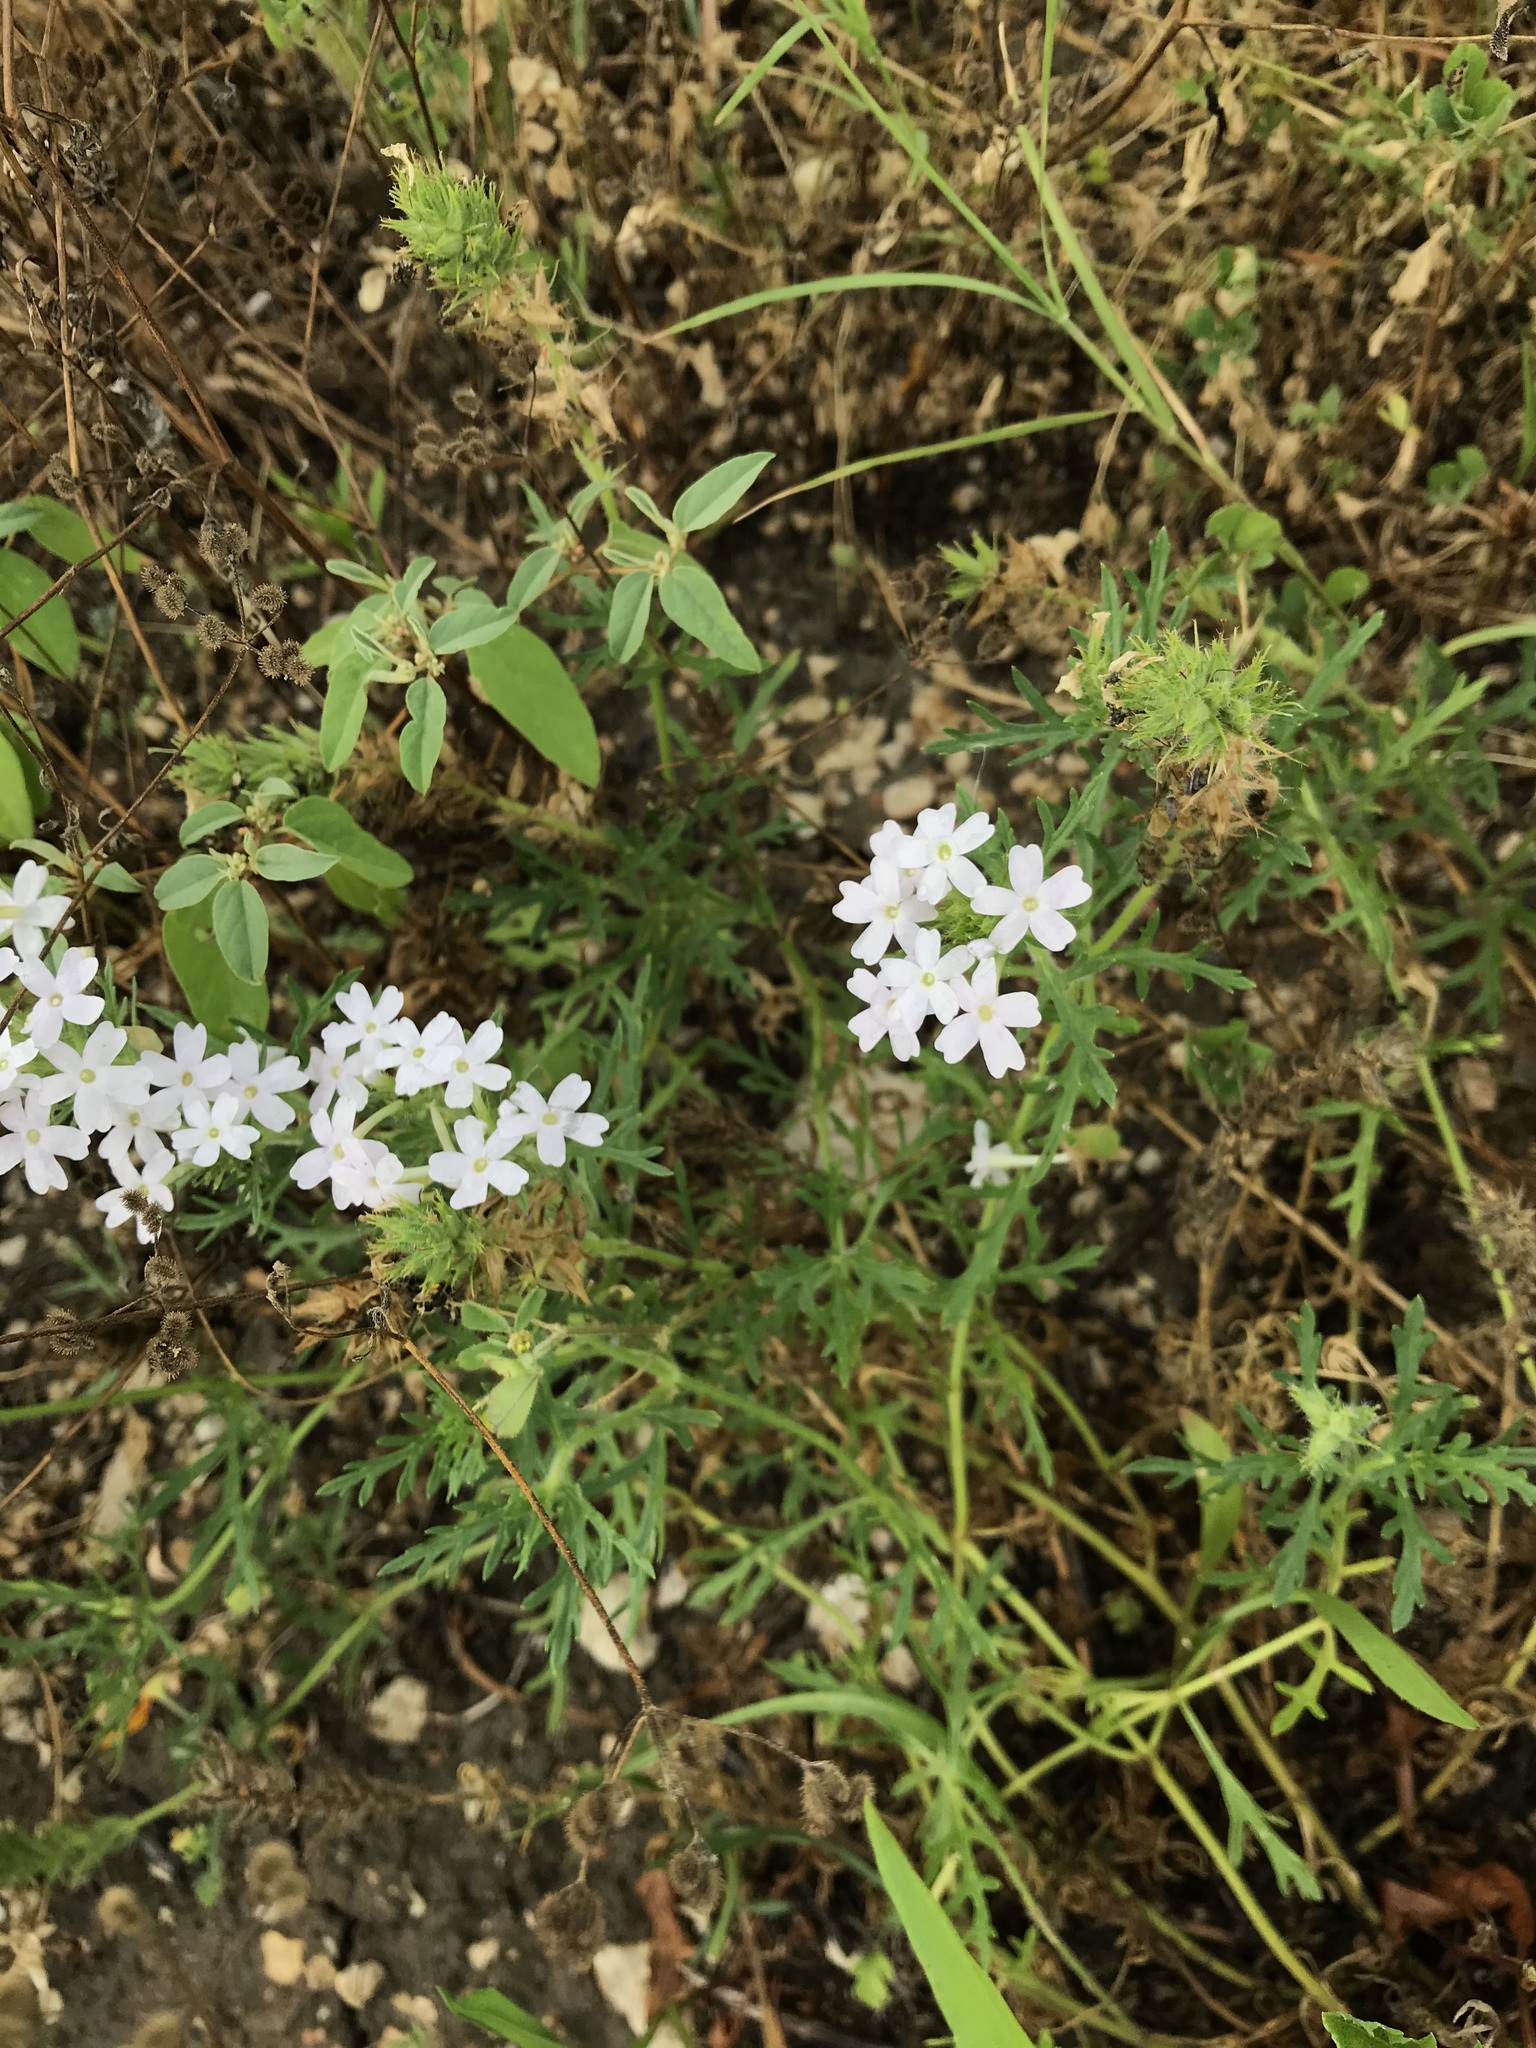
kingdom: Plantae
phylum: Tracheophyta
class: Magnoliopsida
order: Lamiales
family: Verbenaceae
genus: Verbena
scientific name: Verbena bipinnatifida
